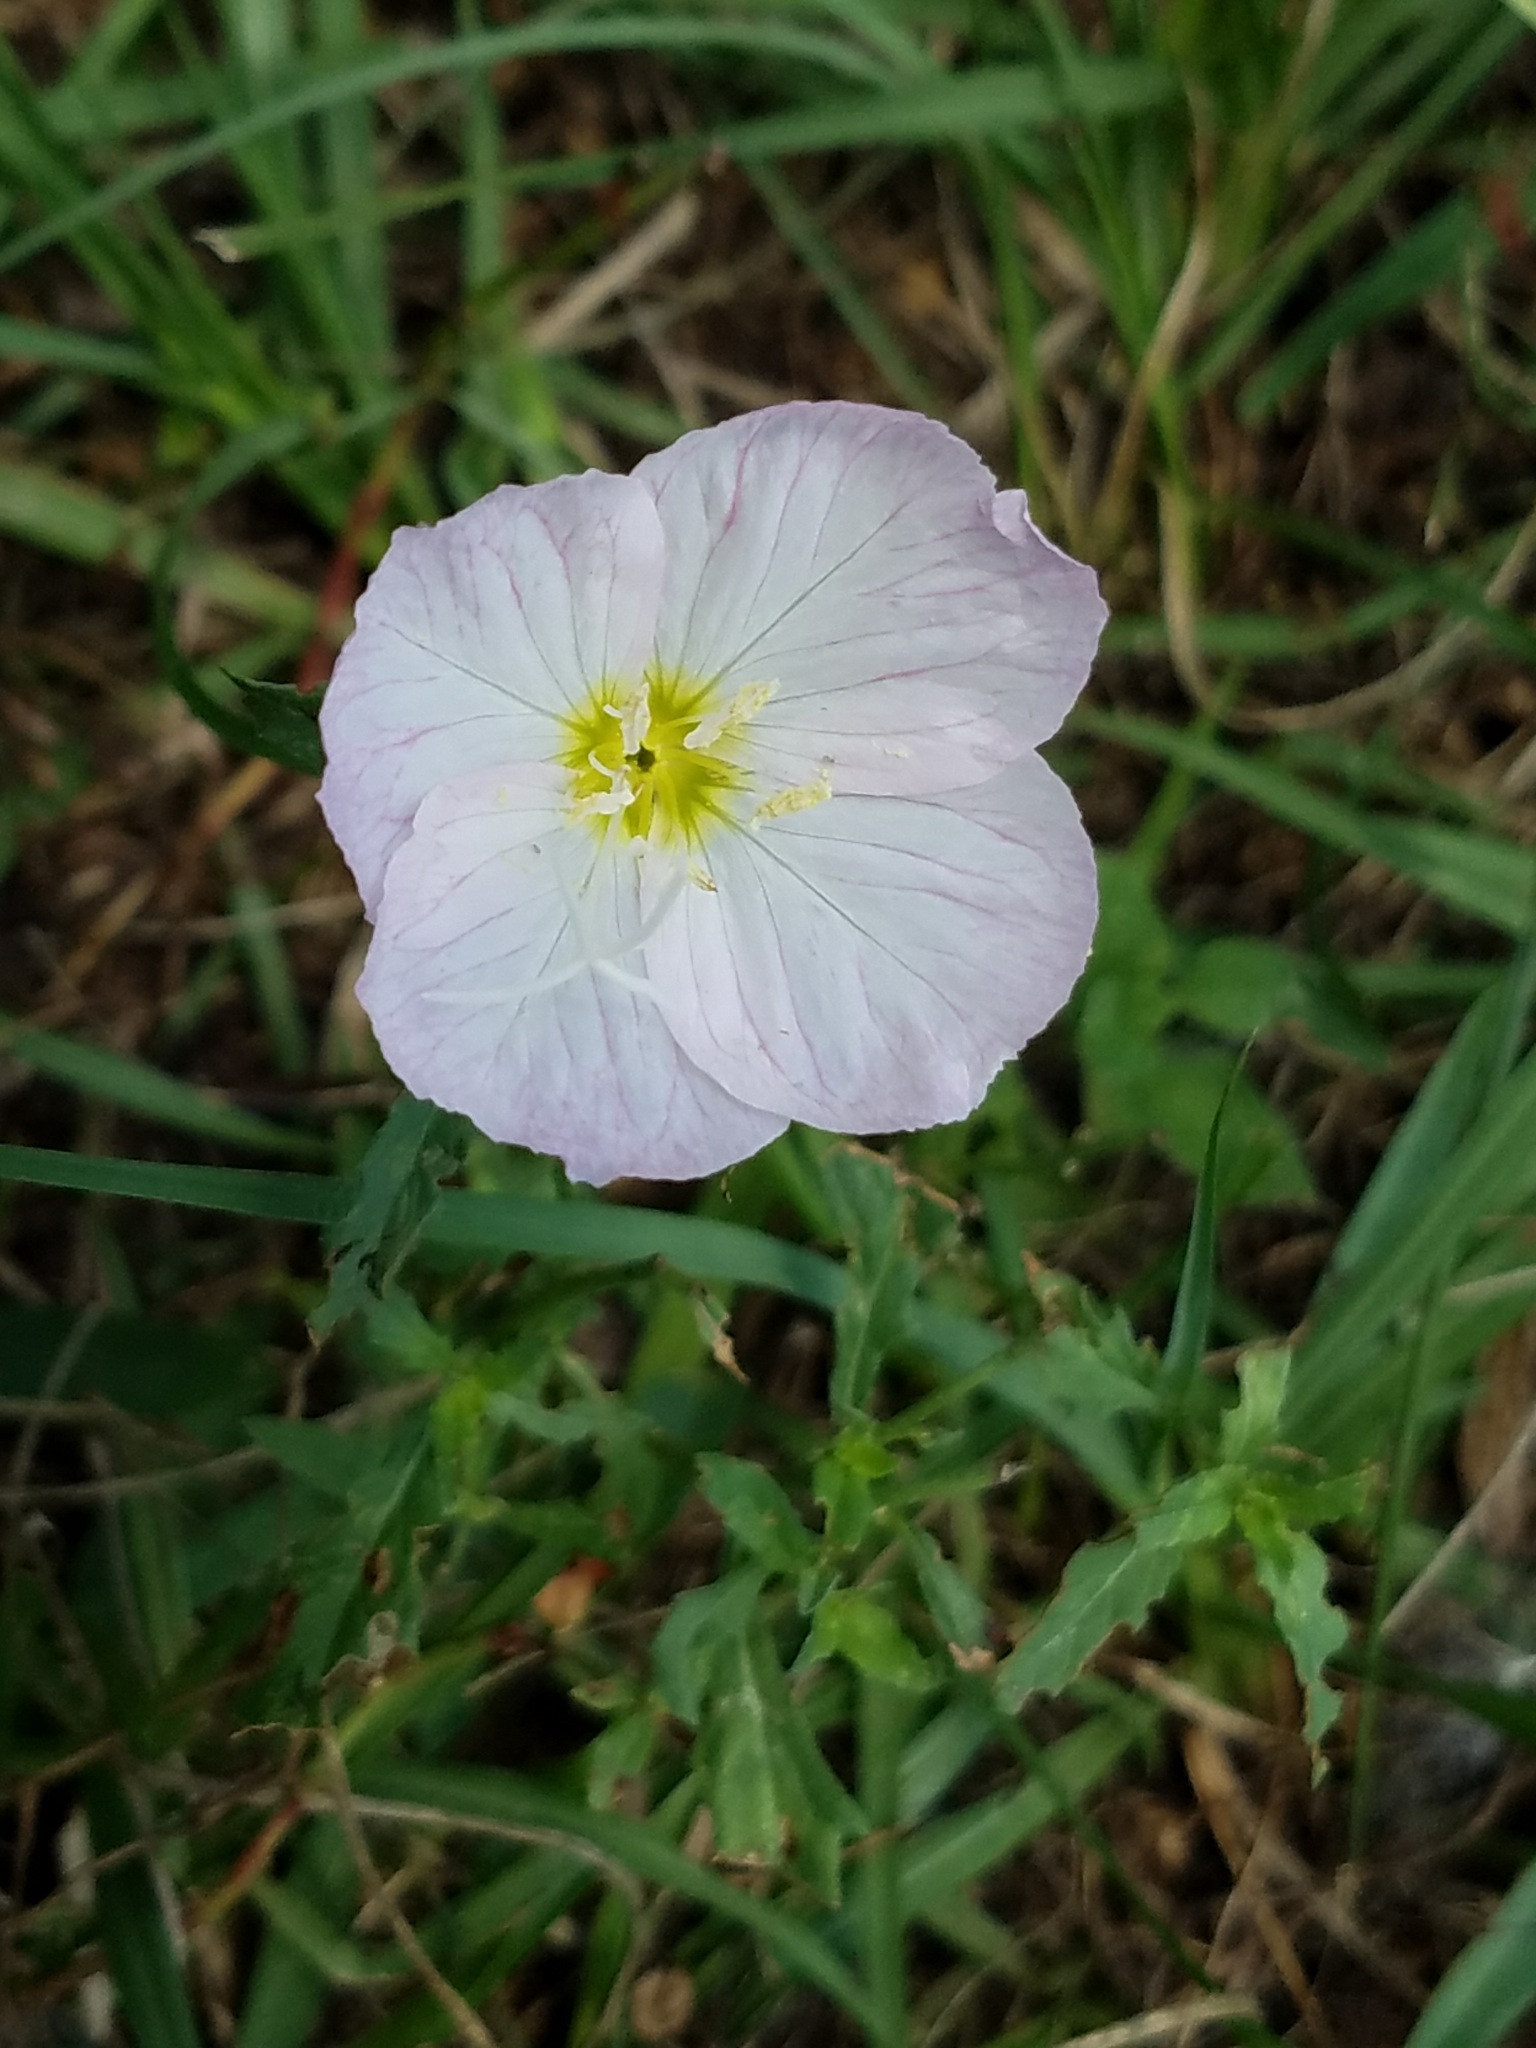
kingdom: Plantae
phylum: Tracheophyta
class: Magnoliopsida
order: Myrtales
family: Onagraceae
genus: Oenothera
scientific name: Oenothera speciosa
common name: White evening-primrose
